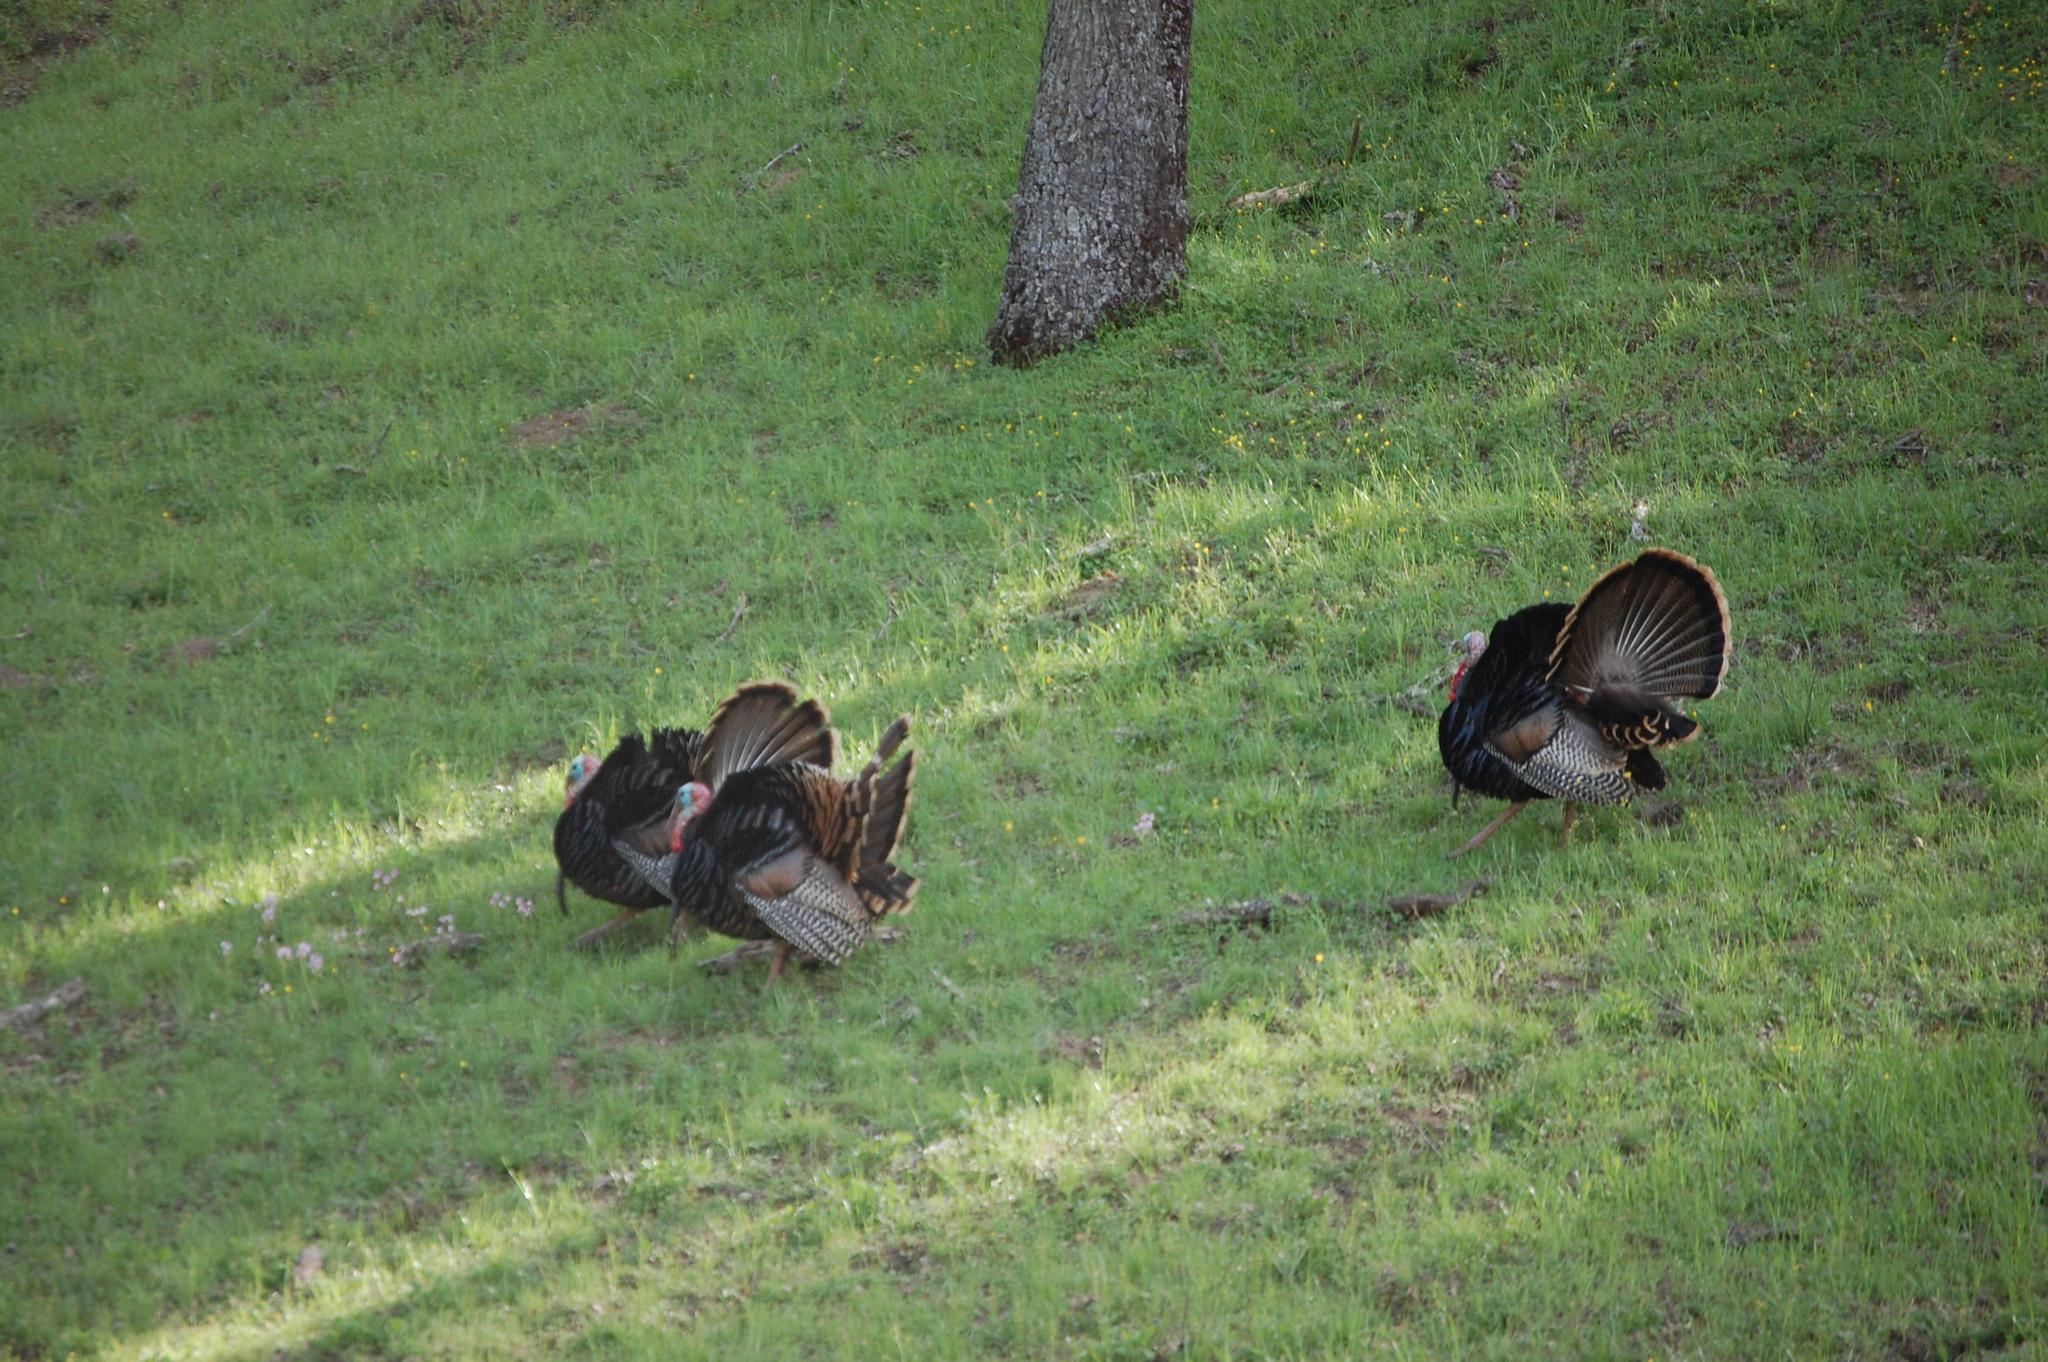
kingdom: Animalia
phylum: Chordata
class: Aves
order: Galliformes
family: Phasianidae
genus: Meleagris
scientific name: Meleagris gallopavo
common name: Wild turkey
